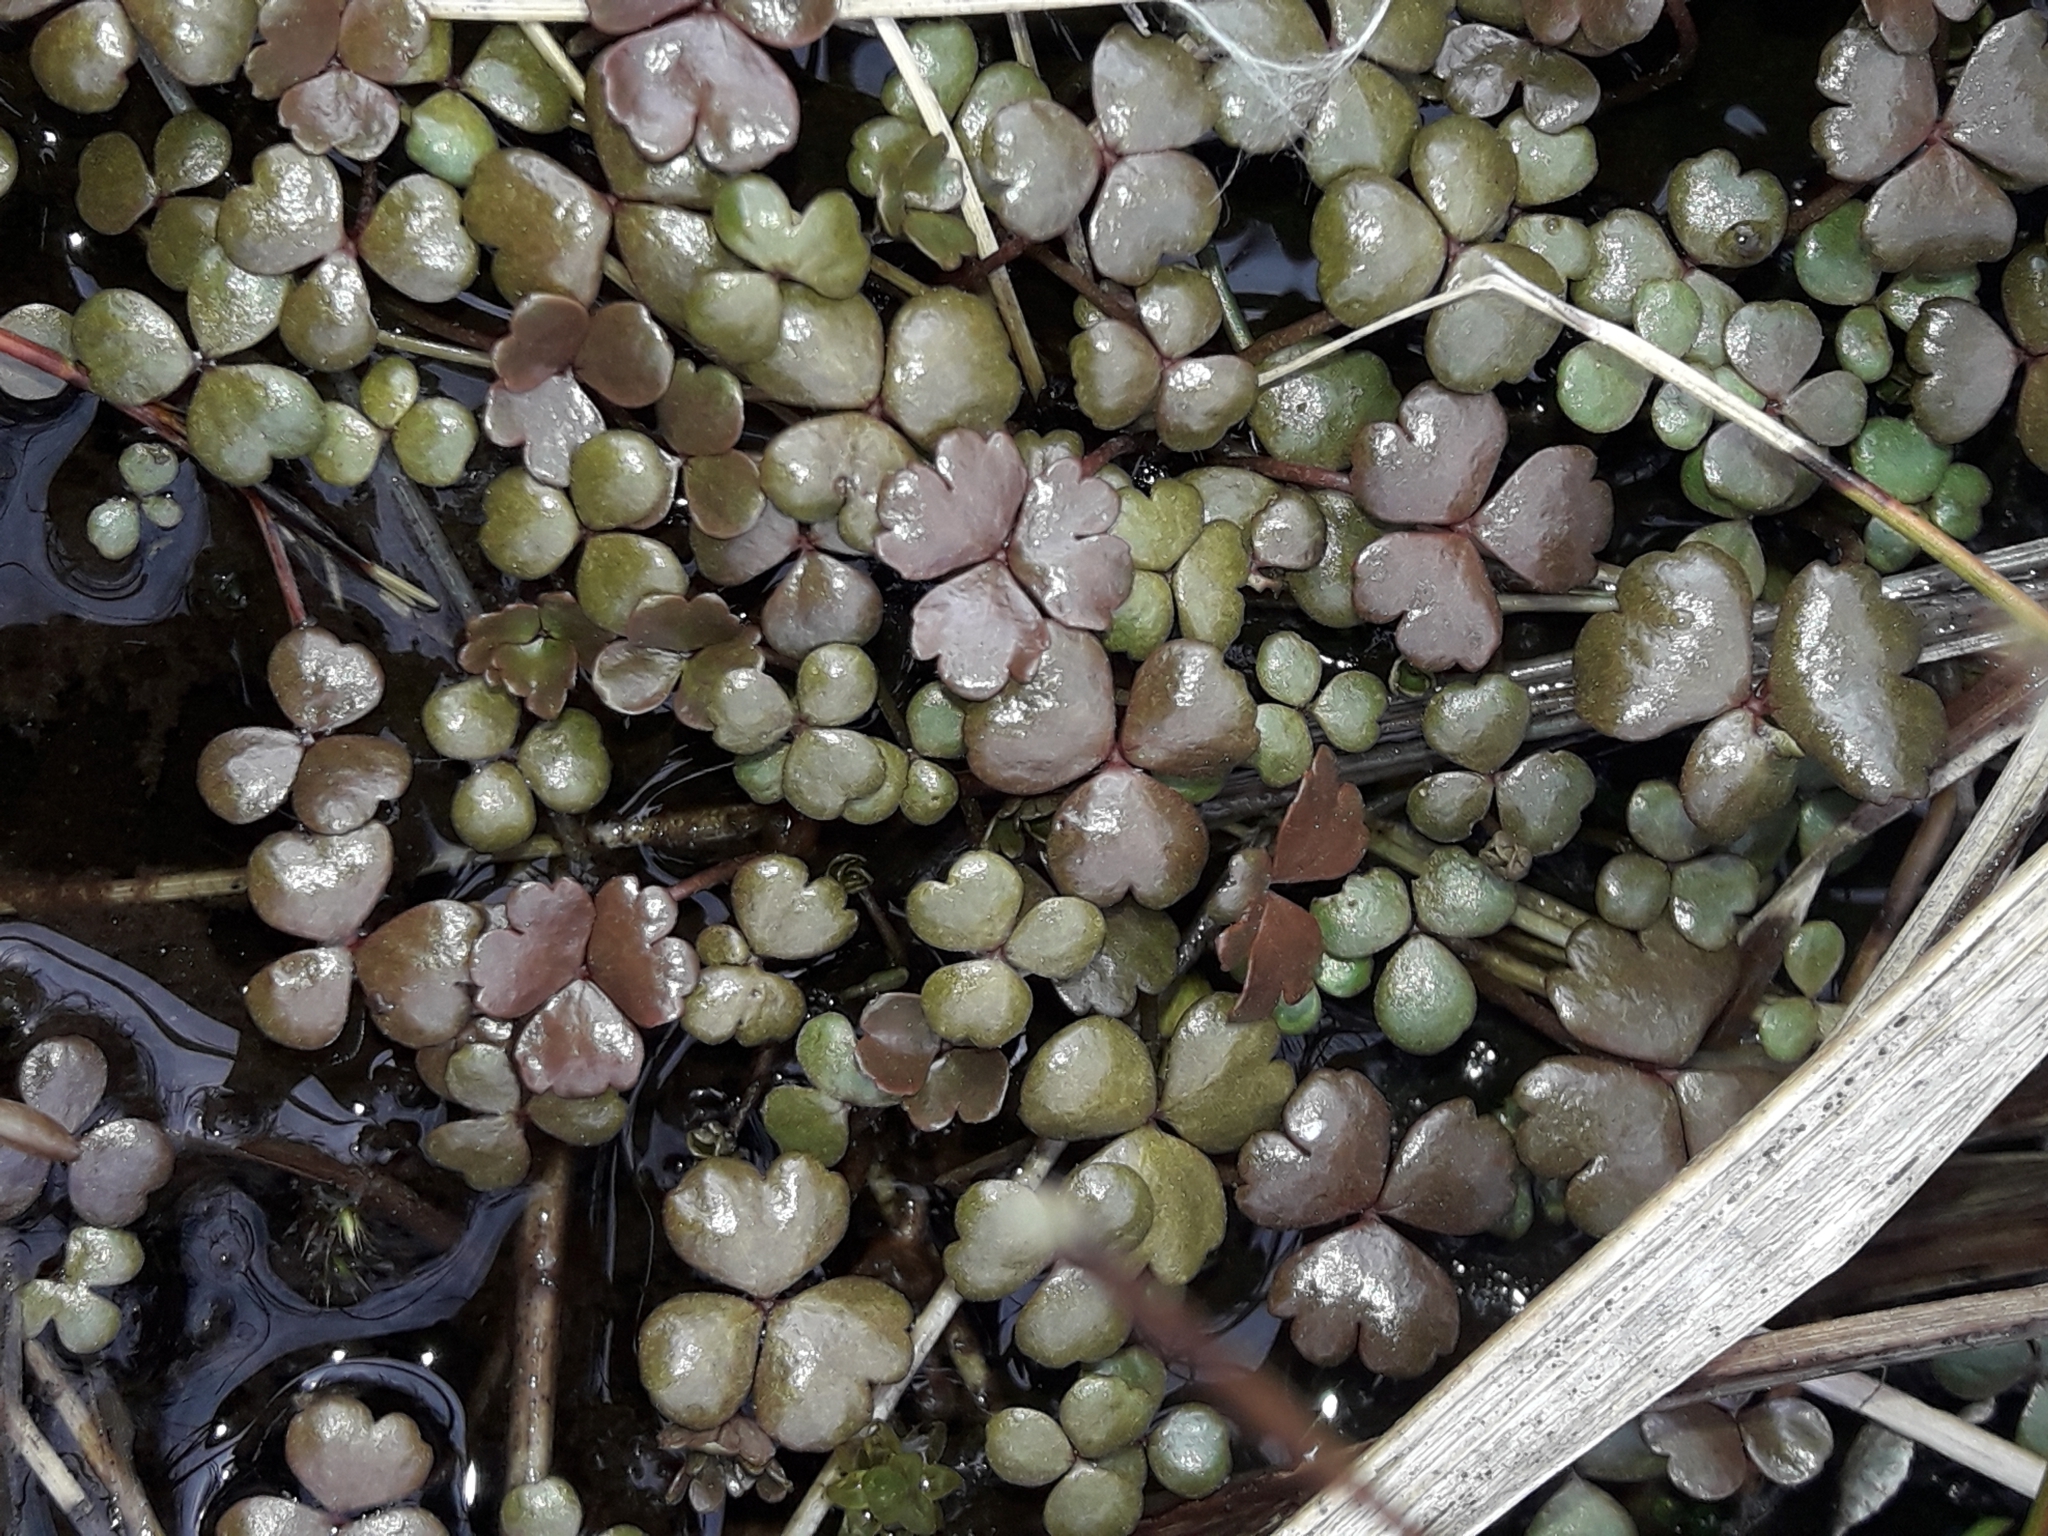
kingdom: Plantae
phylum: Tracheophyta
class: Magnoliopsida
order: Apiales
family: Araliaceae
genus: Hydrocotyle
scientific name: Hydrocotyle sulcata
